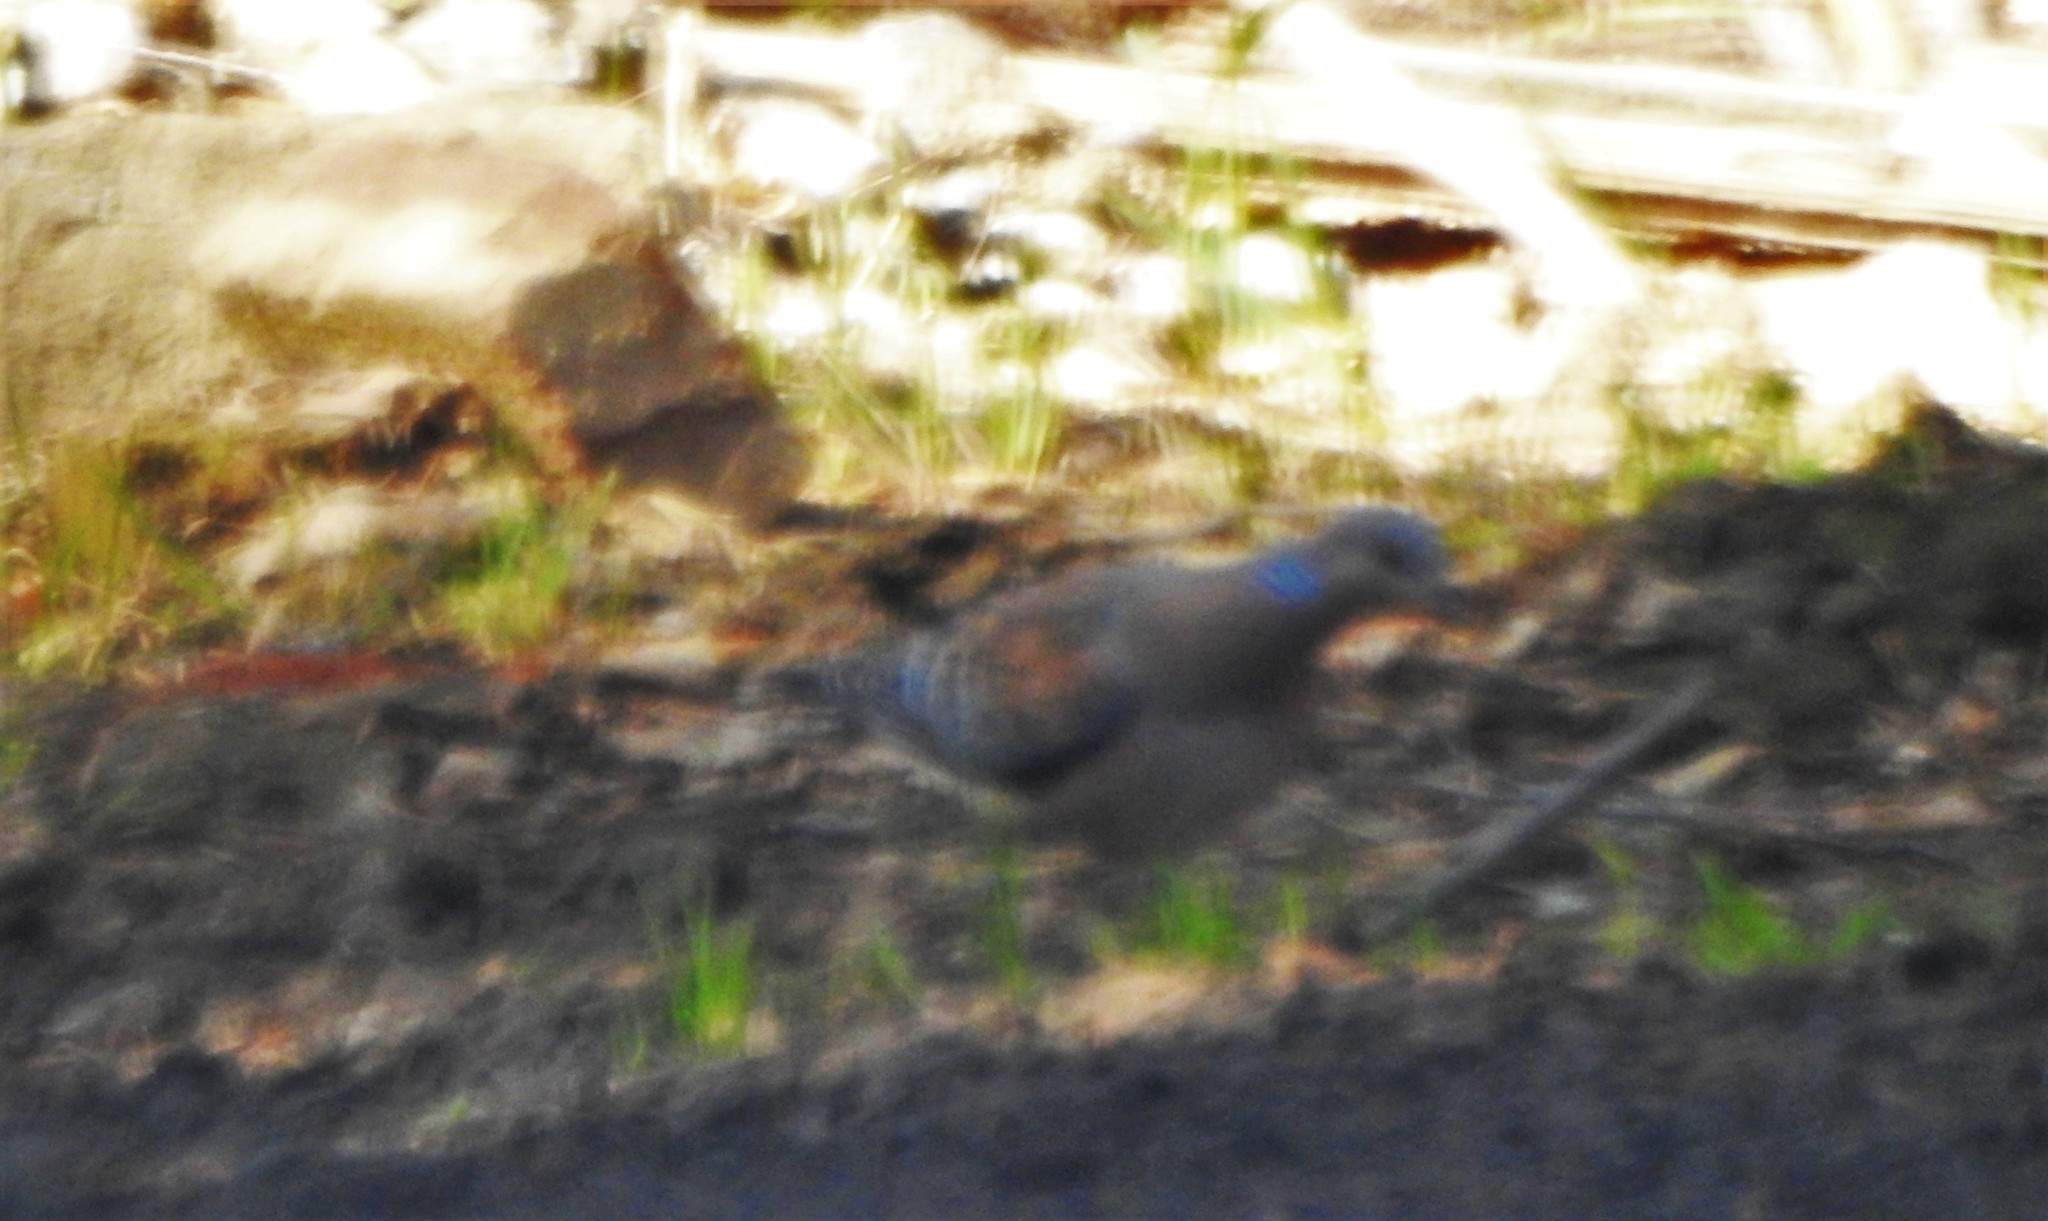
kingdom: Animalia
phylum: Chordata
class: Aves
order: Columbiformes
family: Columbidae
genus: Streptopelia
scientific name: Streptopelia orientalis
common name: Oriental turtle dove
